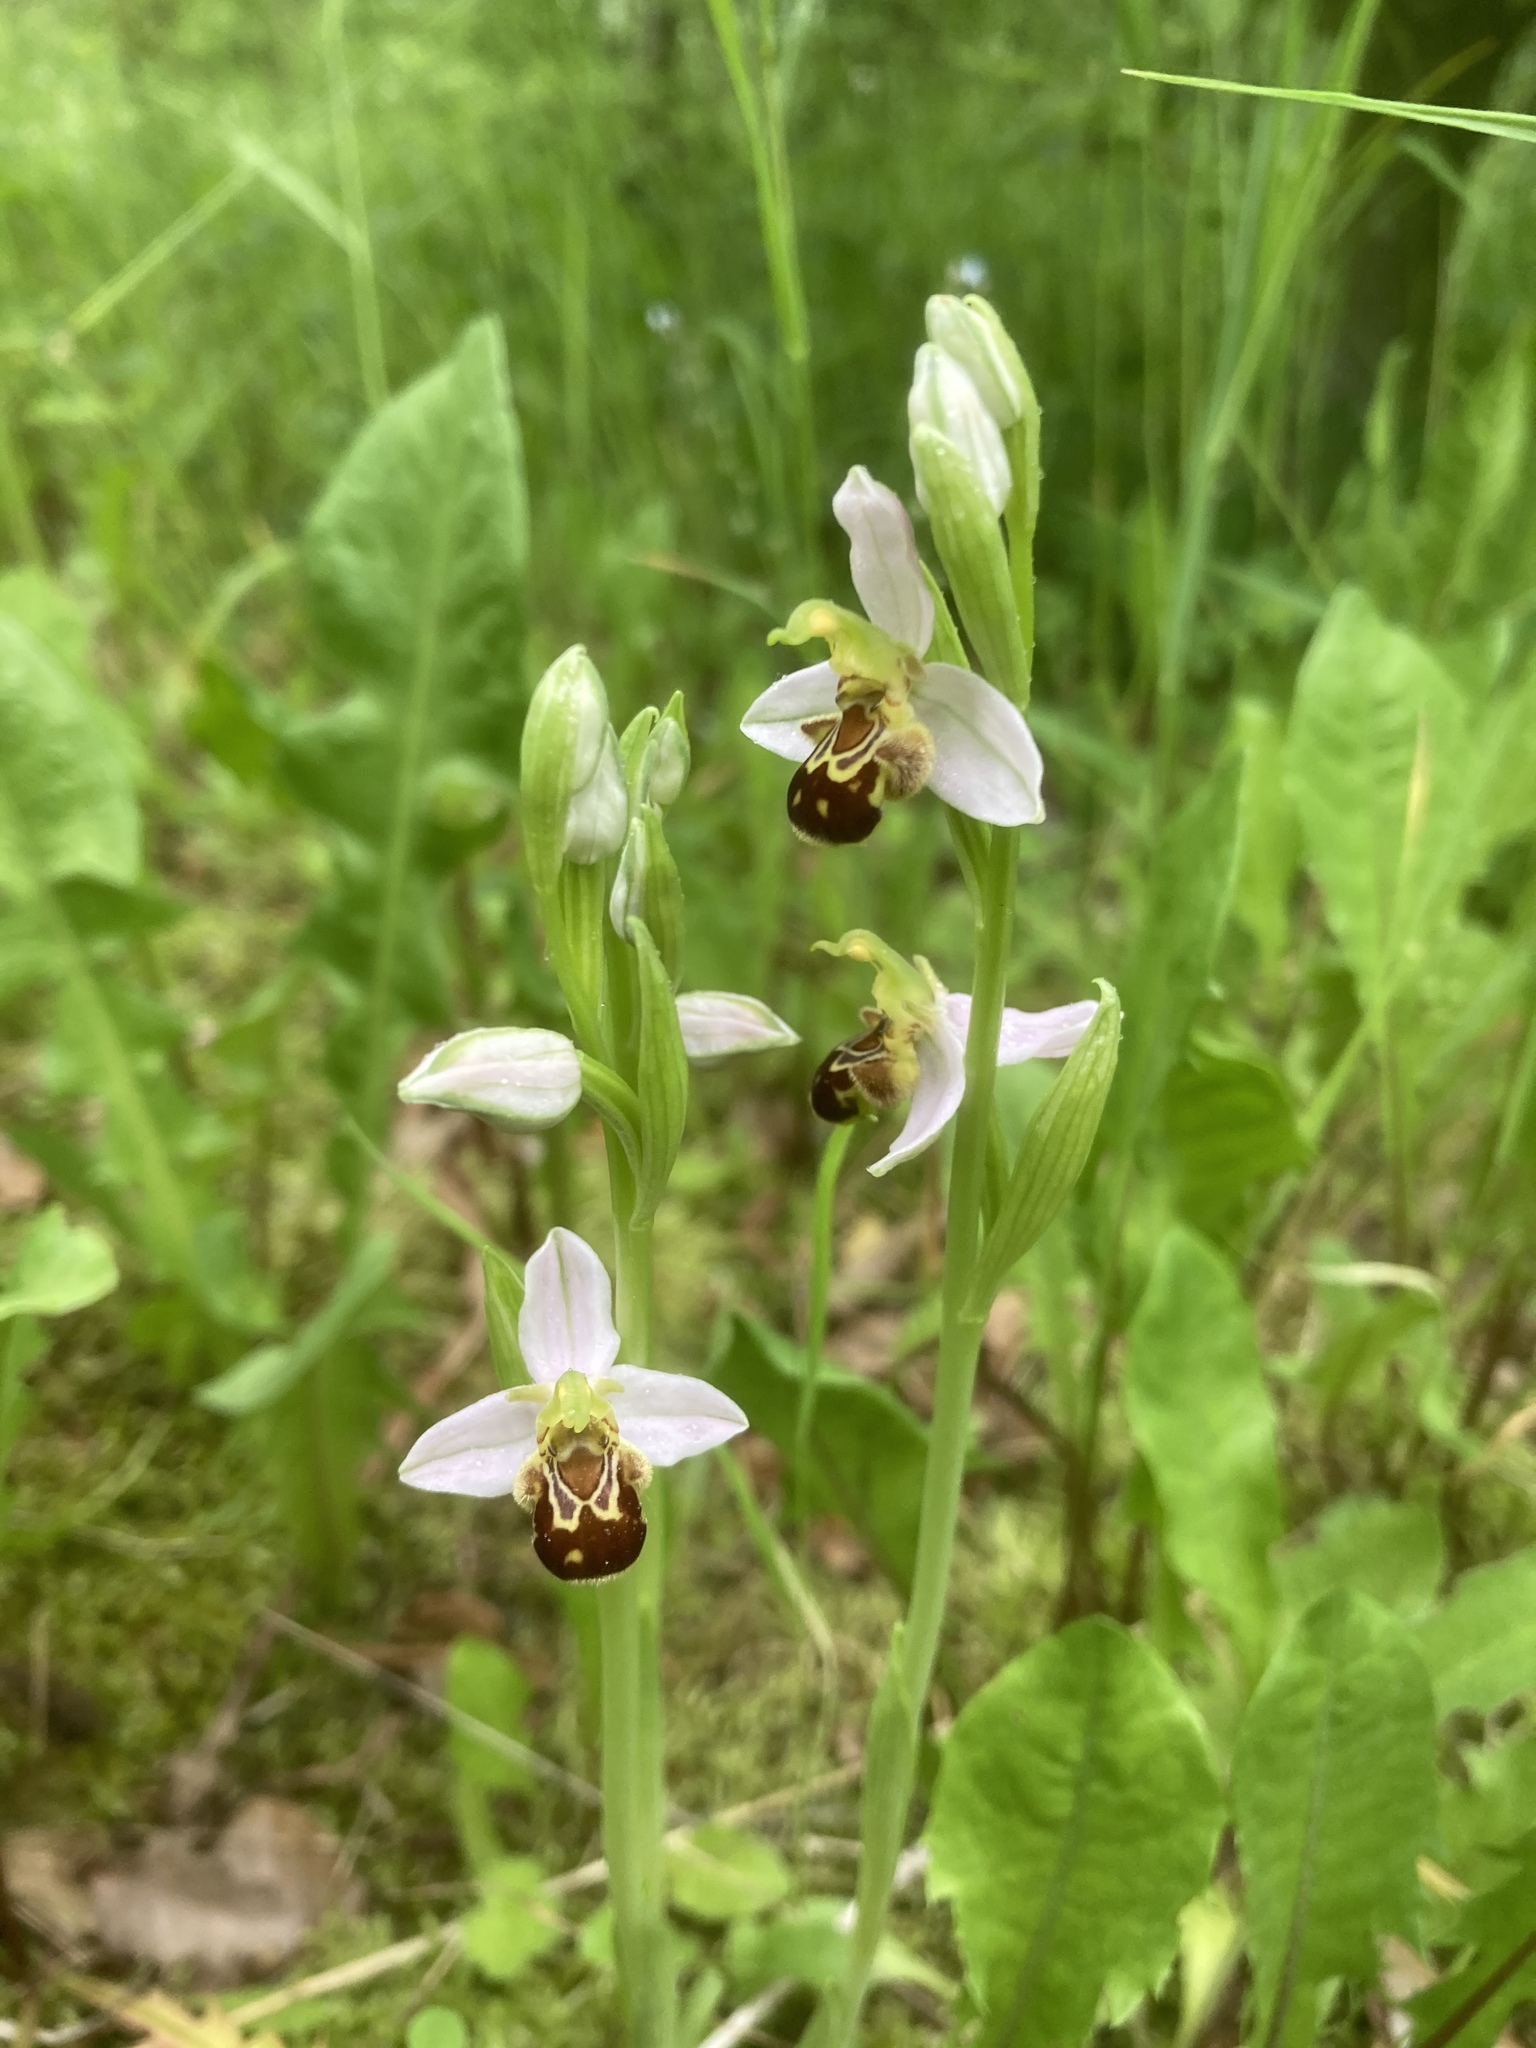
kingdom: Plantae
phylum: Tracheophyta
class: Liliopsida
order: Asparagales
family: Orchidaceae
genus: Ophrys
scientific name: Ophrys apifera
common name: Bee orchid
